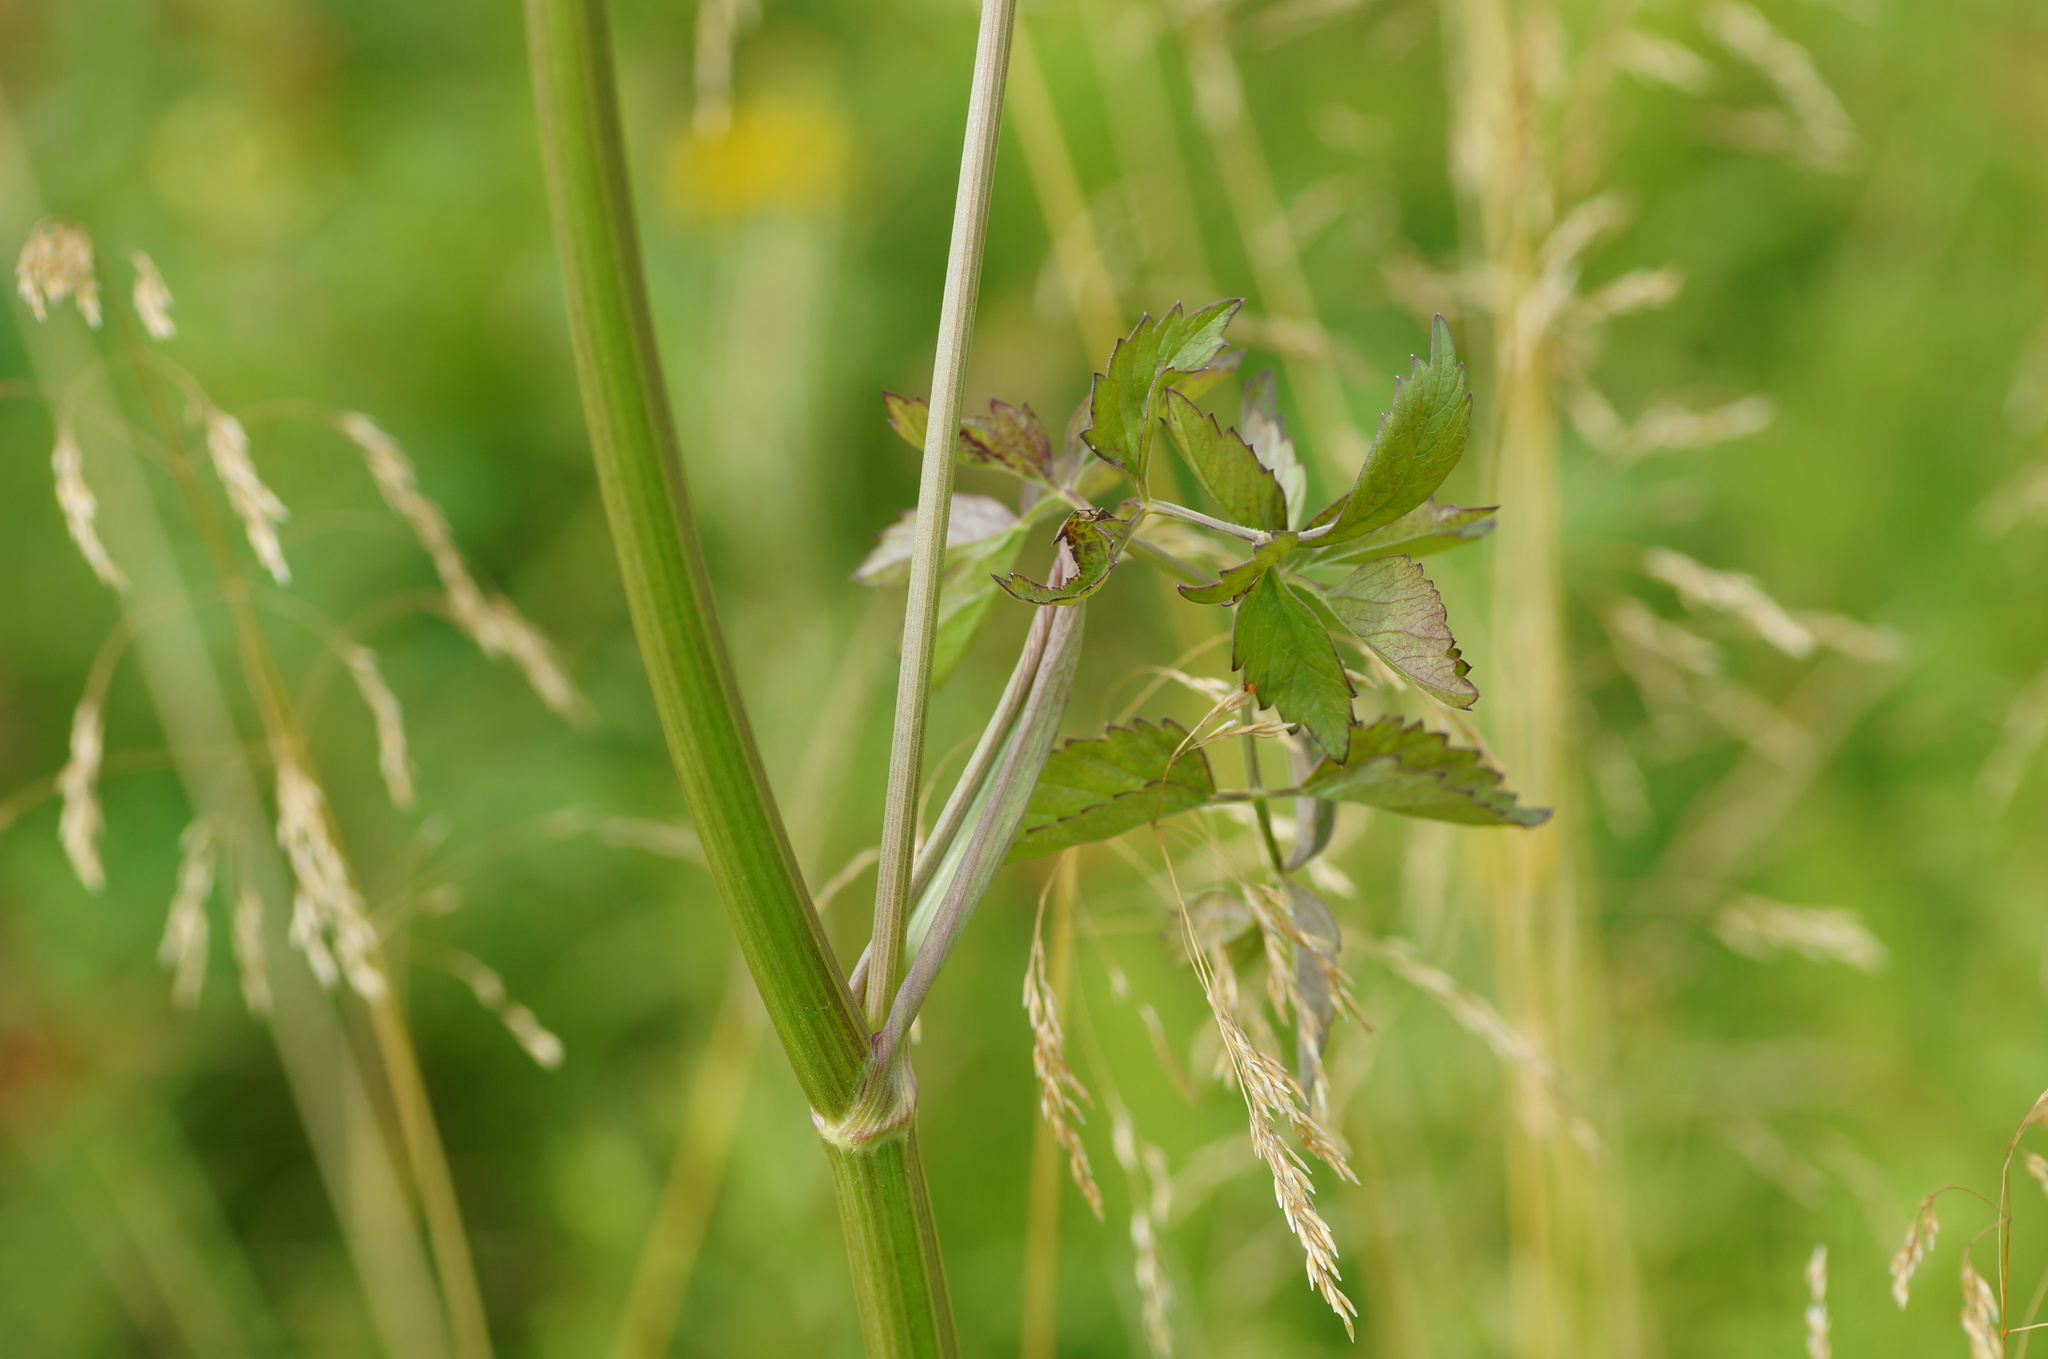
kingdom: Plantae
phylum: Tracheophyta
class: Magnoliopsida
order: Apiales
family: Apiaceae
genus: Ostericum
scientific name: Ostericum palustre
